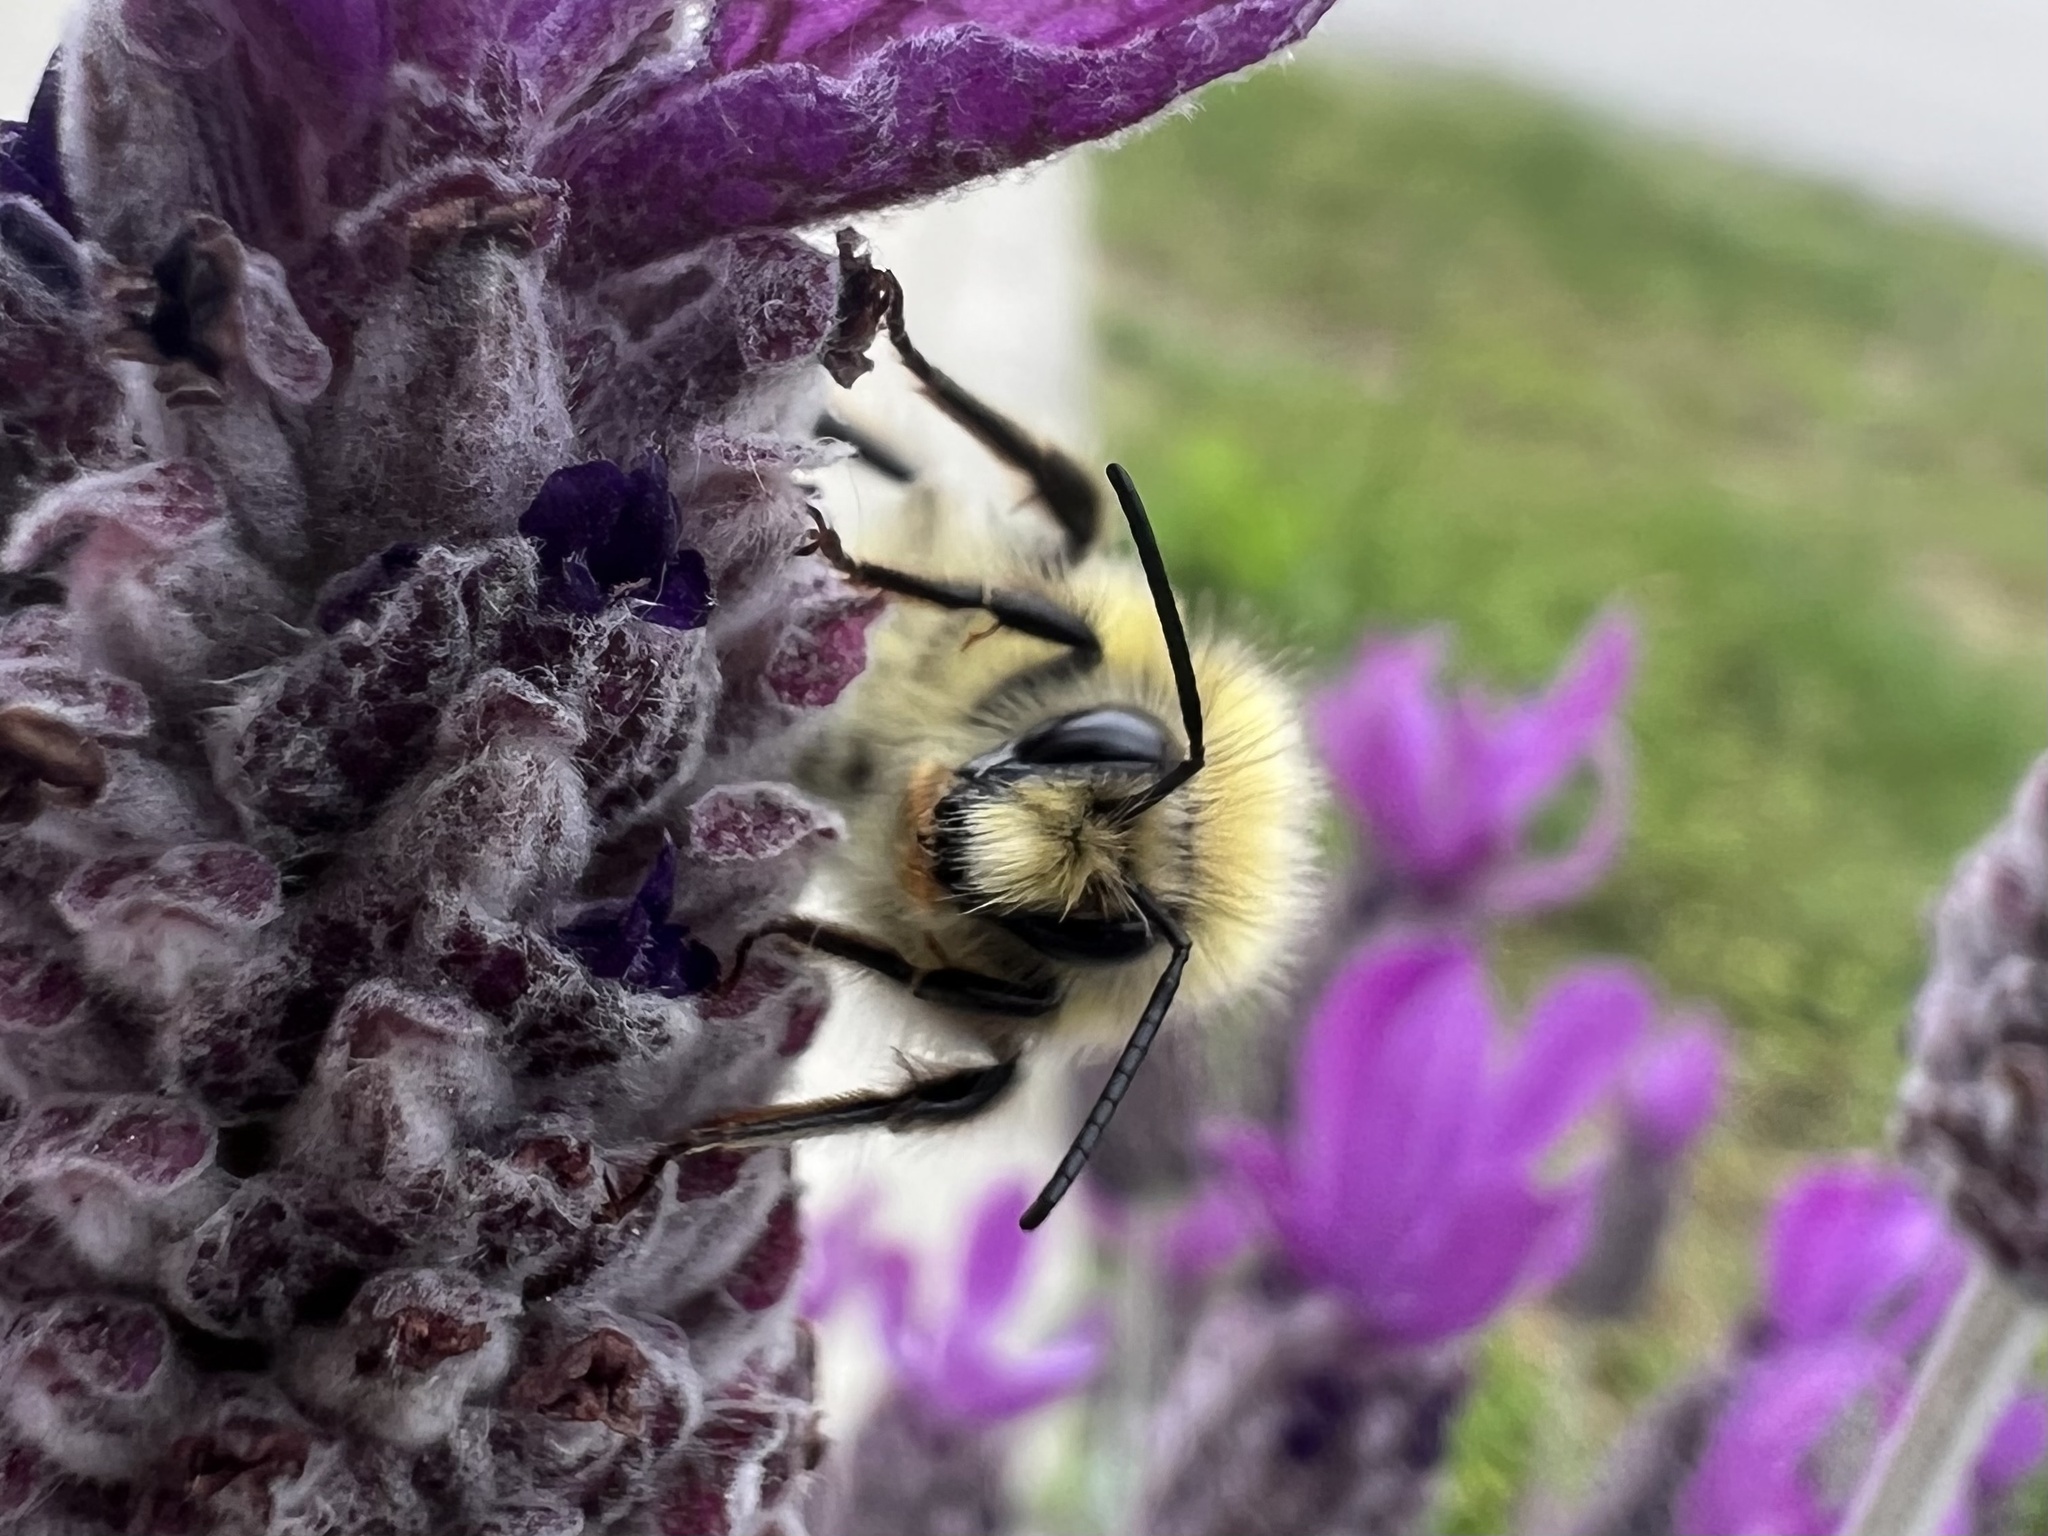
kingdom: Animalia
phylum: Arthropoda
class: Insecta
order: Hymenoptera
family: Apidae
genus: Bombus
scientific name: Bombus flavifrons
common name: Yellow head bumble bee
